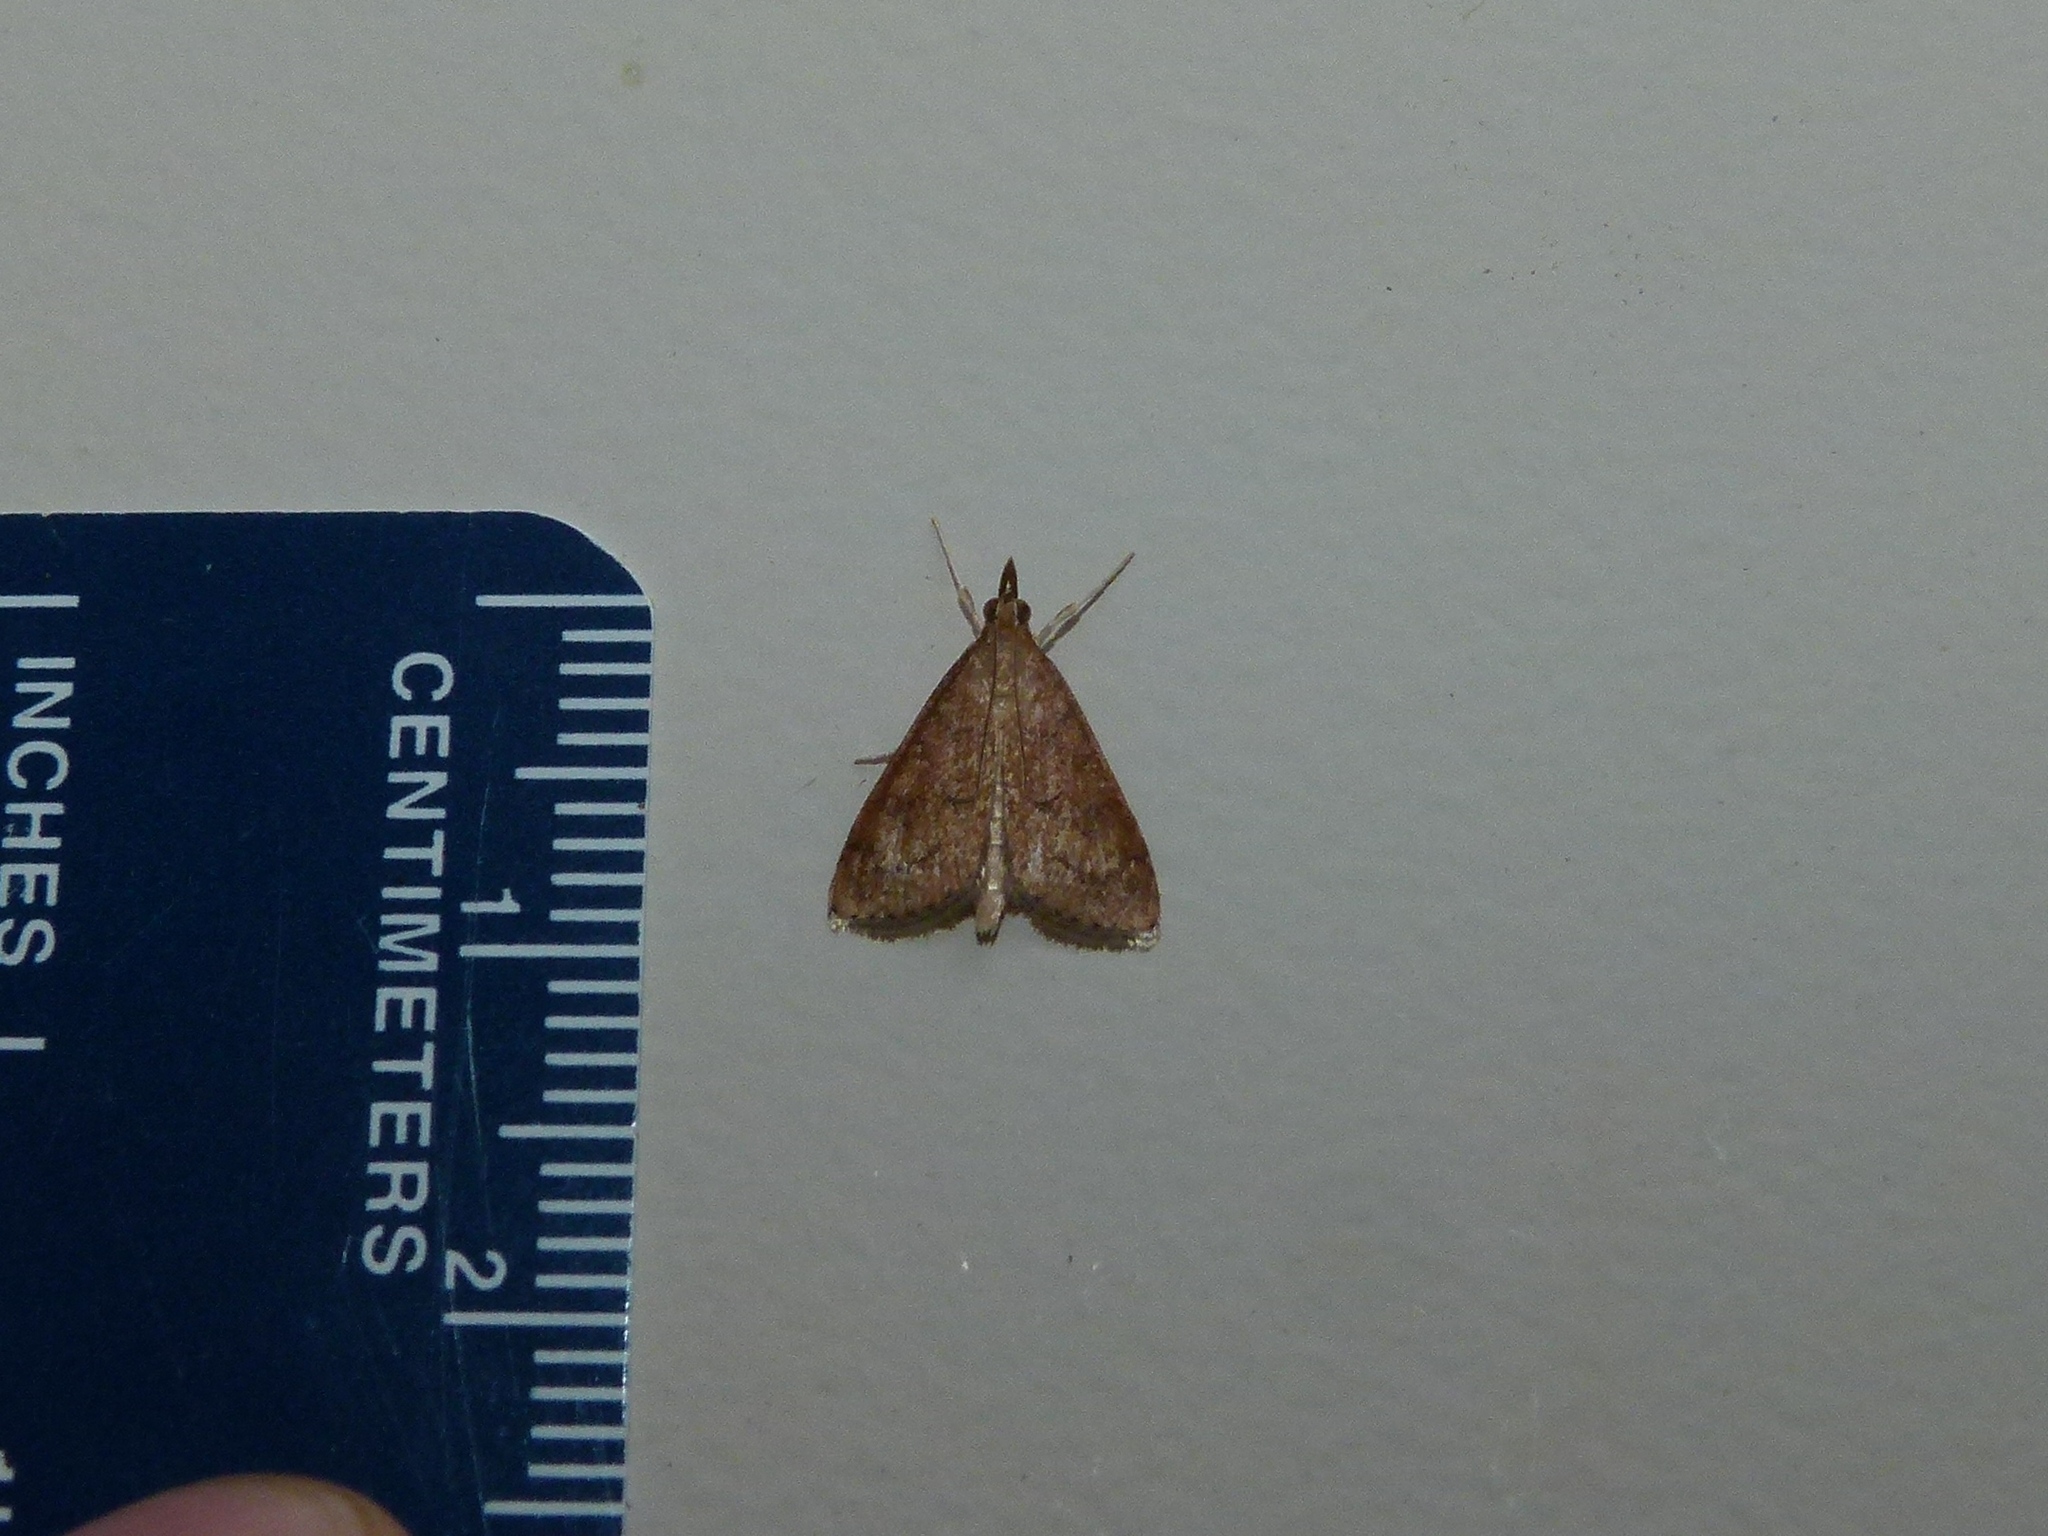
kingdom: Animalia
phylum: Arthropoda
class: Insecta
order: Lepidoptera
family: Crambidae
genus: Udea
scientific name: Udea rubigalis
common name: Celery leaftier moth
